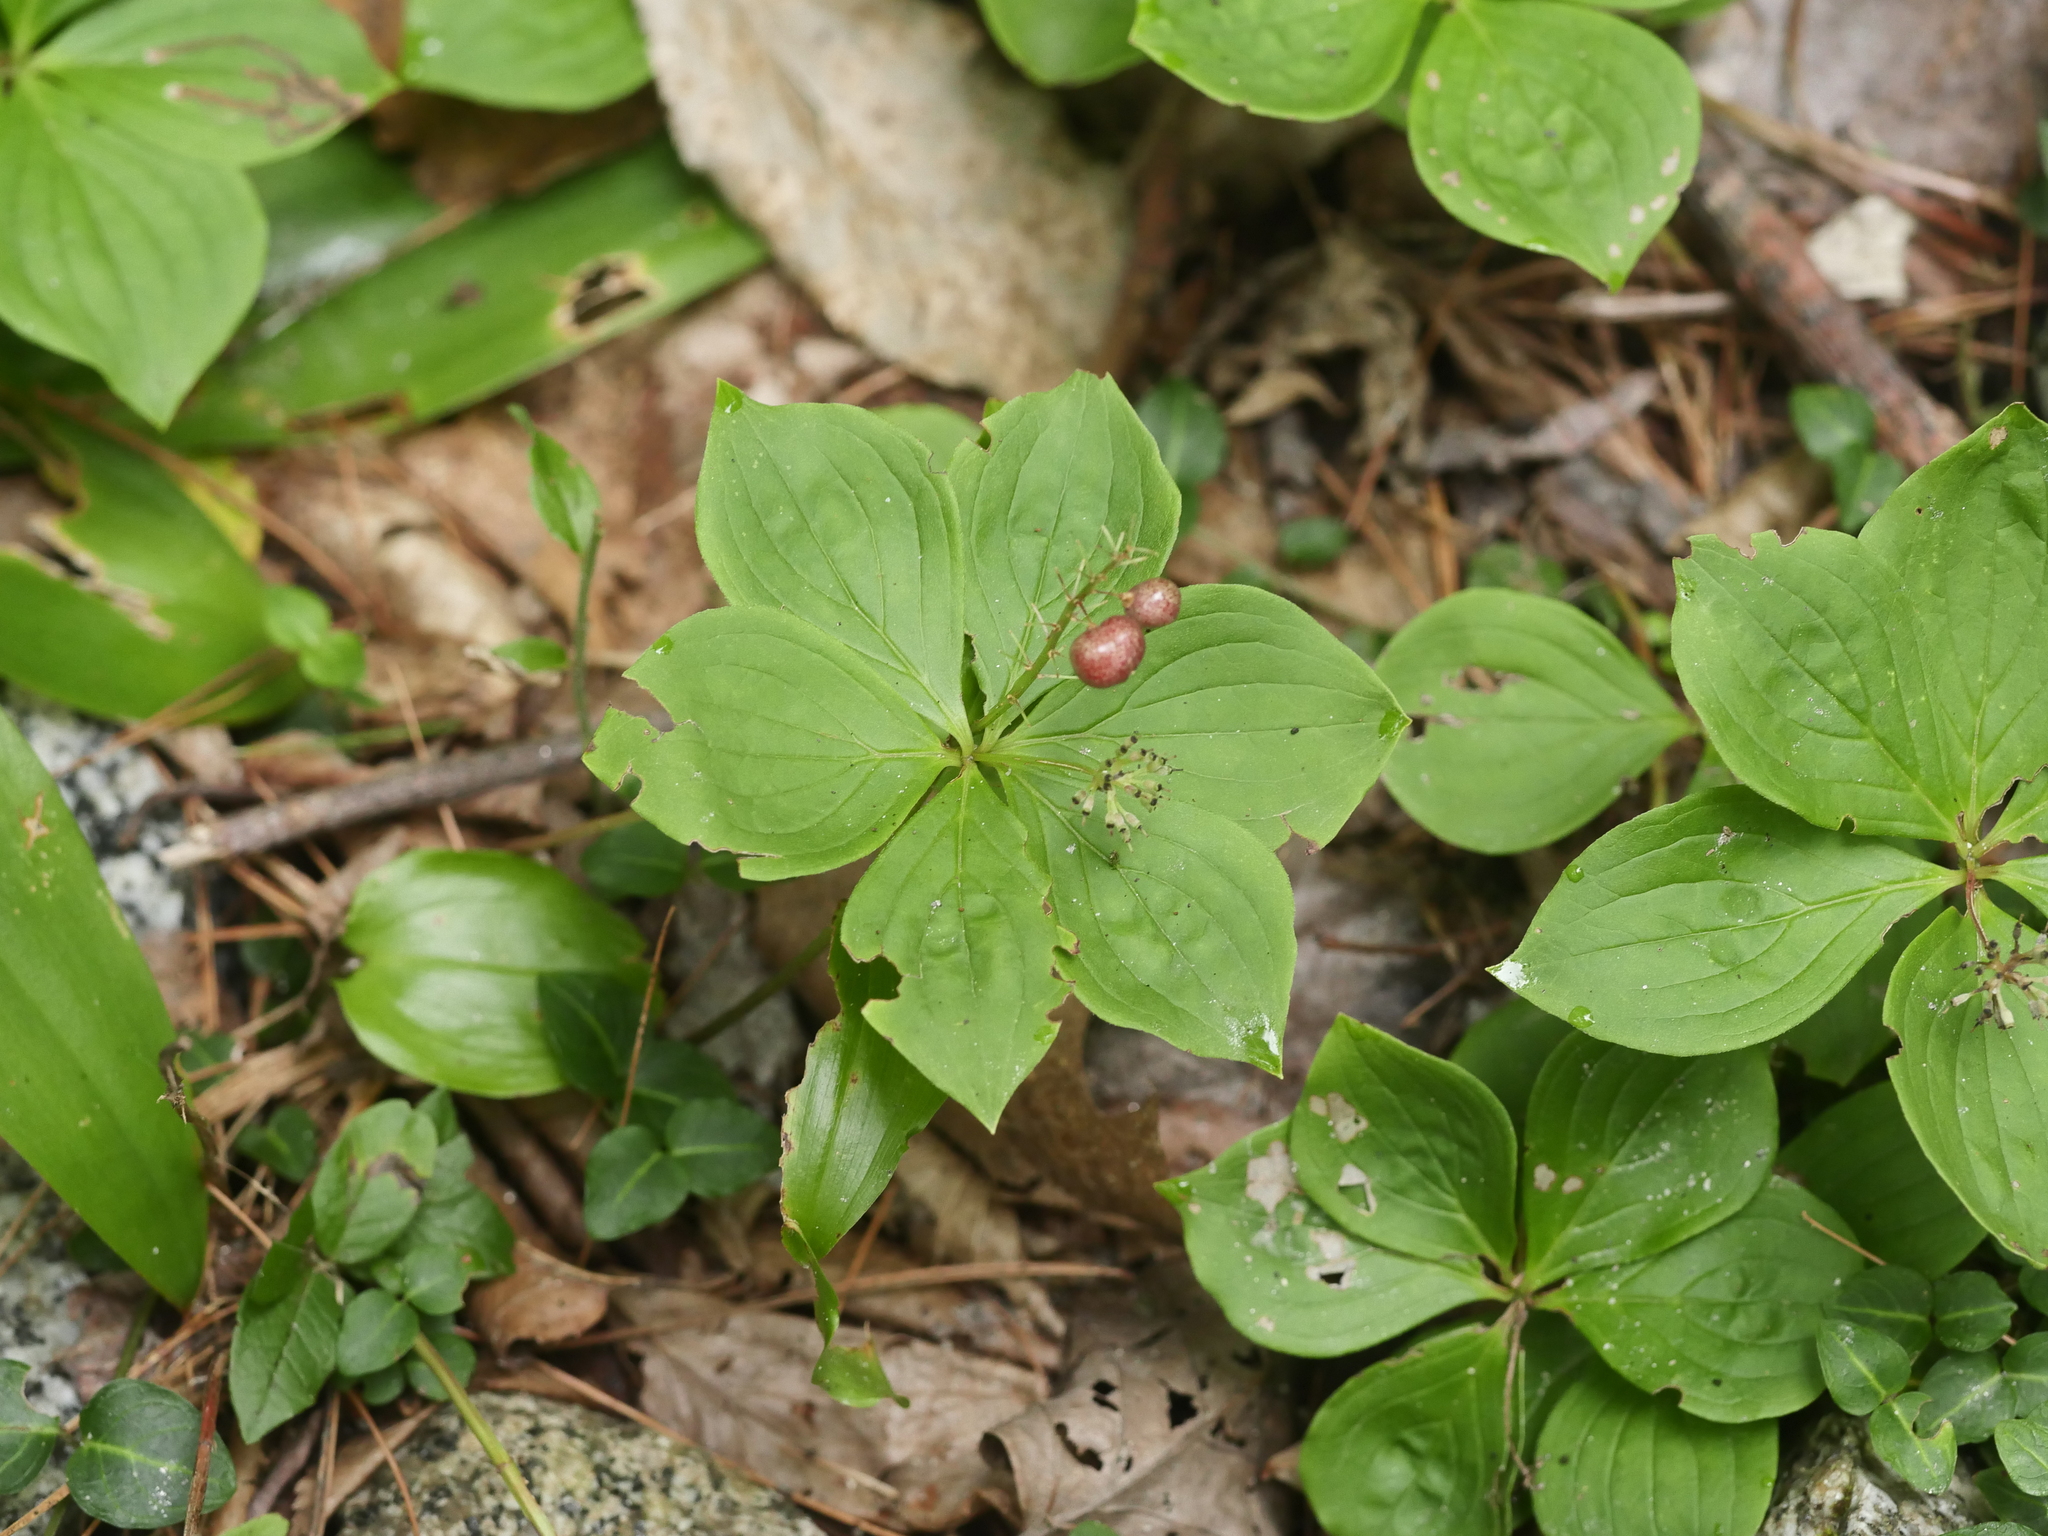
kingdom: Plantae
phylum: Tracheophyta
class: Magnoliopsida
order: Cornales
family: Cornaceae
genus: Cornus
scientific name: Cornus canadensis
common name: Creeping dogwood
